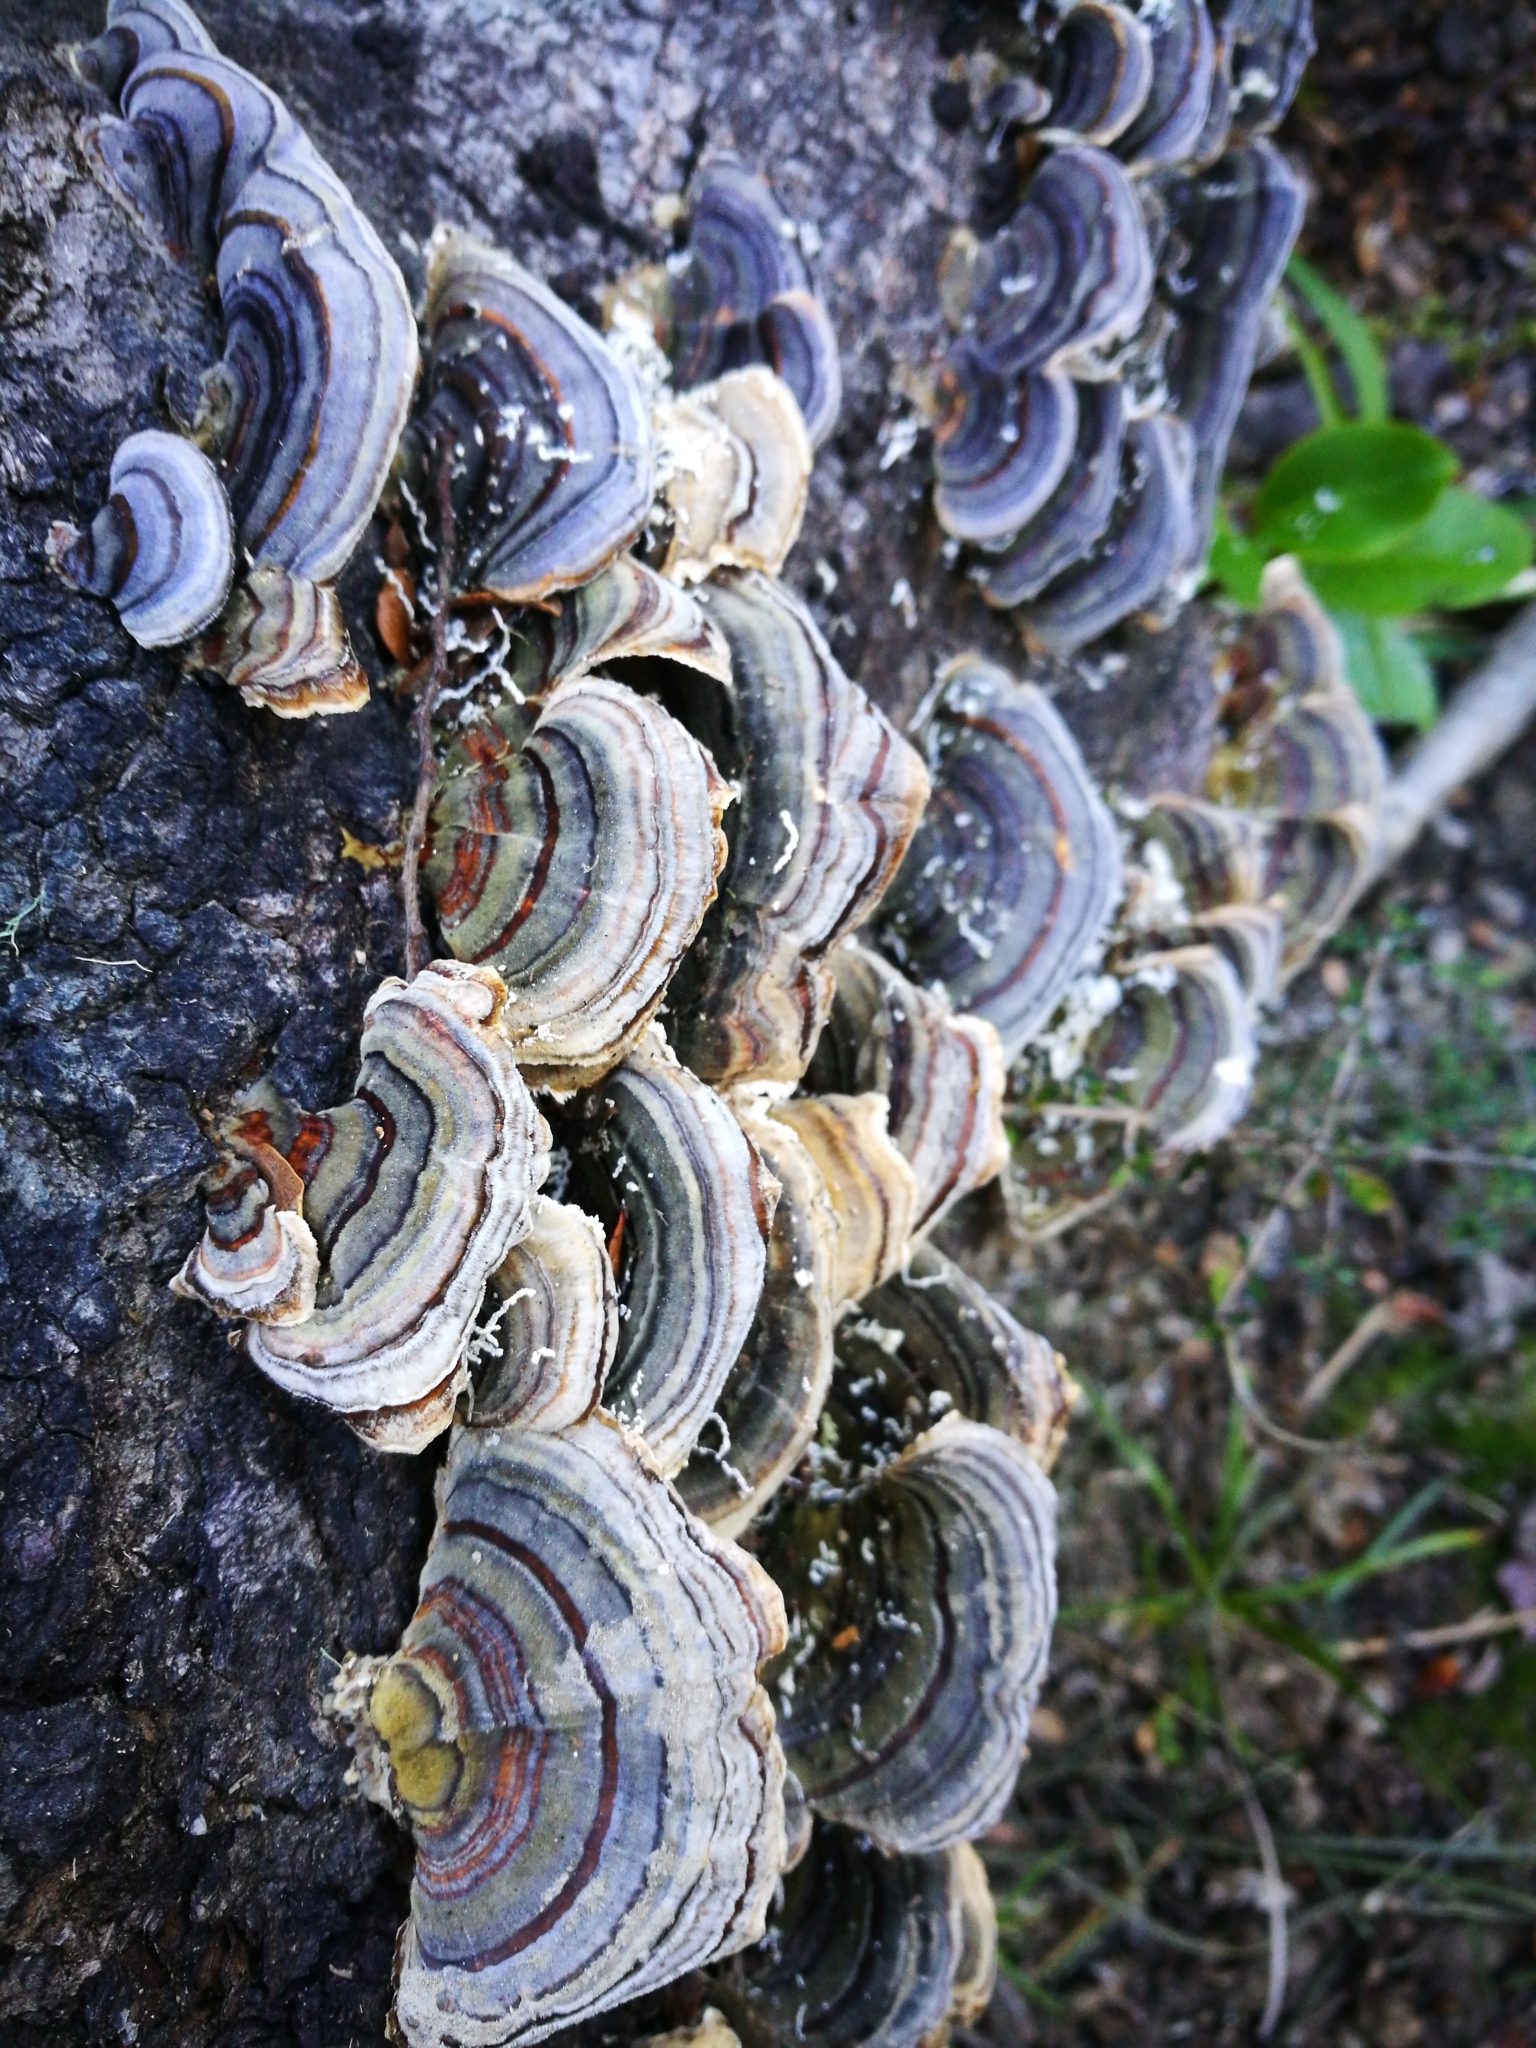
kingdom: Fungi
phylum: Basidiomycota
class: Agaricomycetes
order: Polyporales
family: Polyporaceae
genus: Trametes
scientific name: Trametes versicolor
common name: Turkeytail
